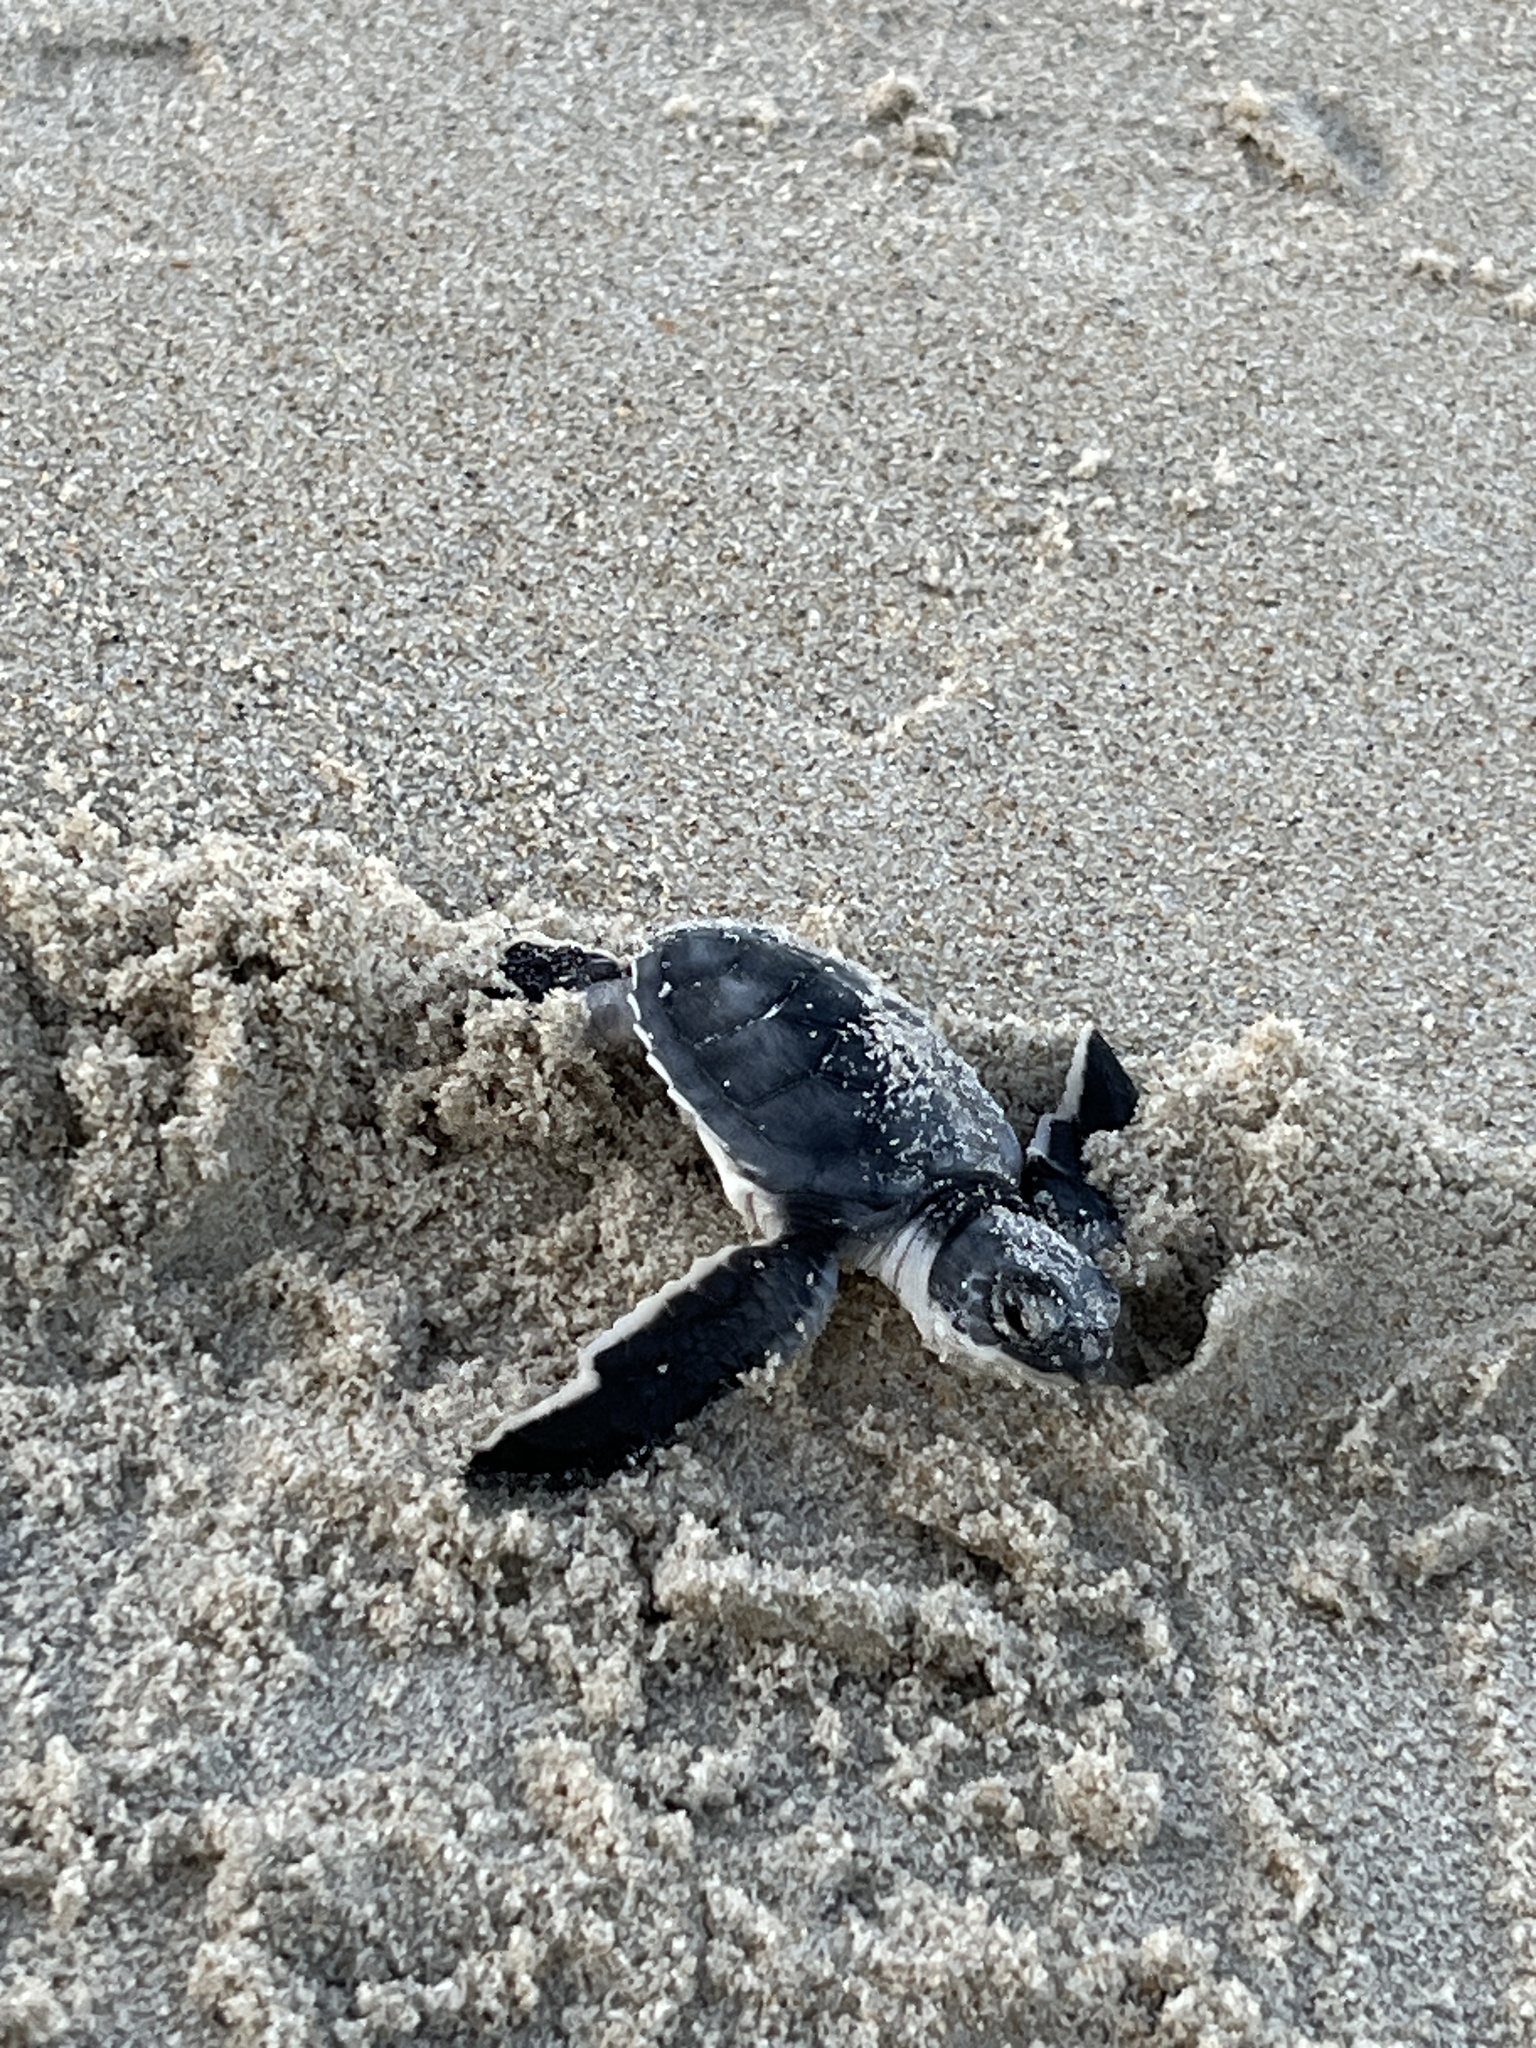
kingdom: Animalia
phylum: Chordata
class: Testudines
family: Cheloniidae
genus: Chelonia
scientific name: Chelonia mydas
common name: Green turtle
